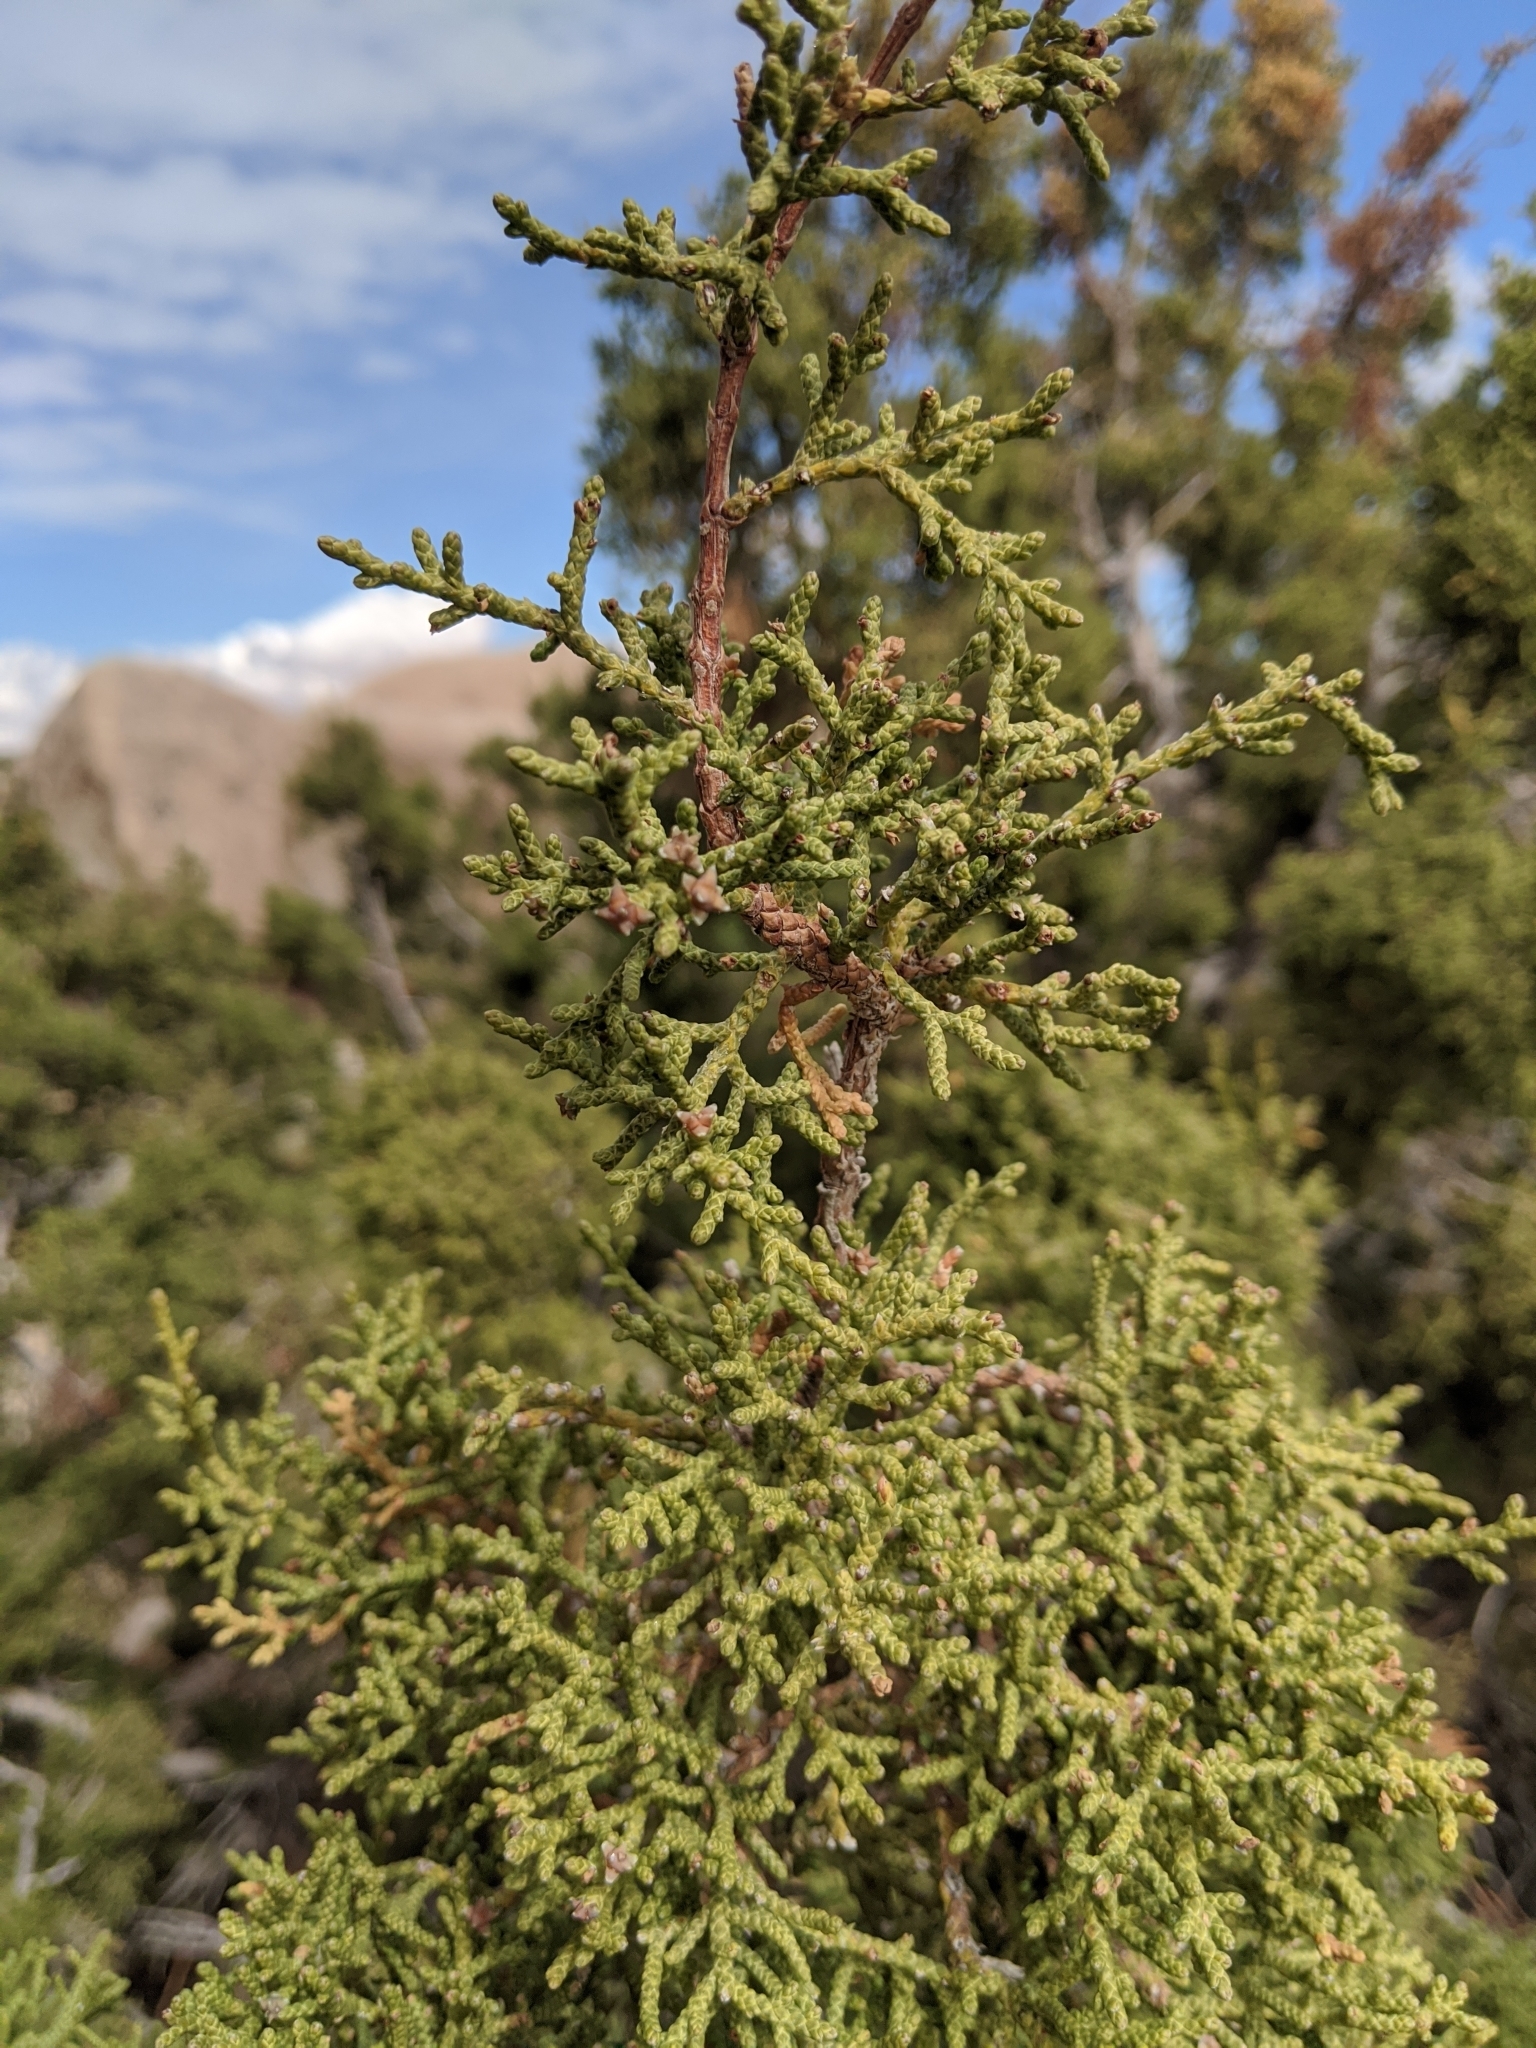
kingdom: Plantae
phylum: Tracheophyta
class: Pinopsida
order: Pinales
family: Cupressaceae
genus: Juniperus
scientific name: Juniperus californica
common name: California juniper
